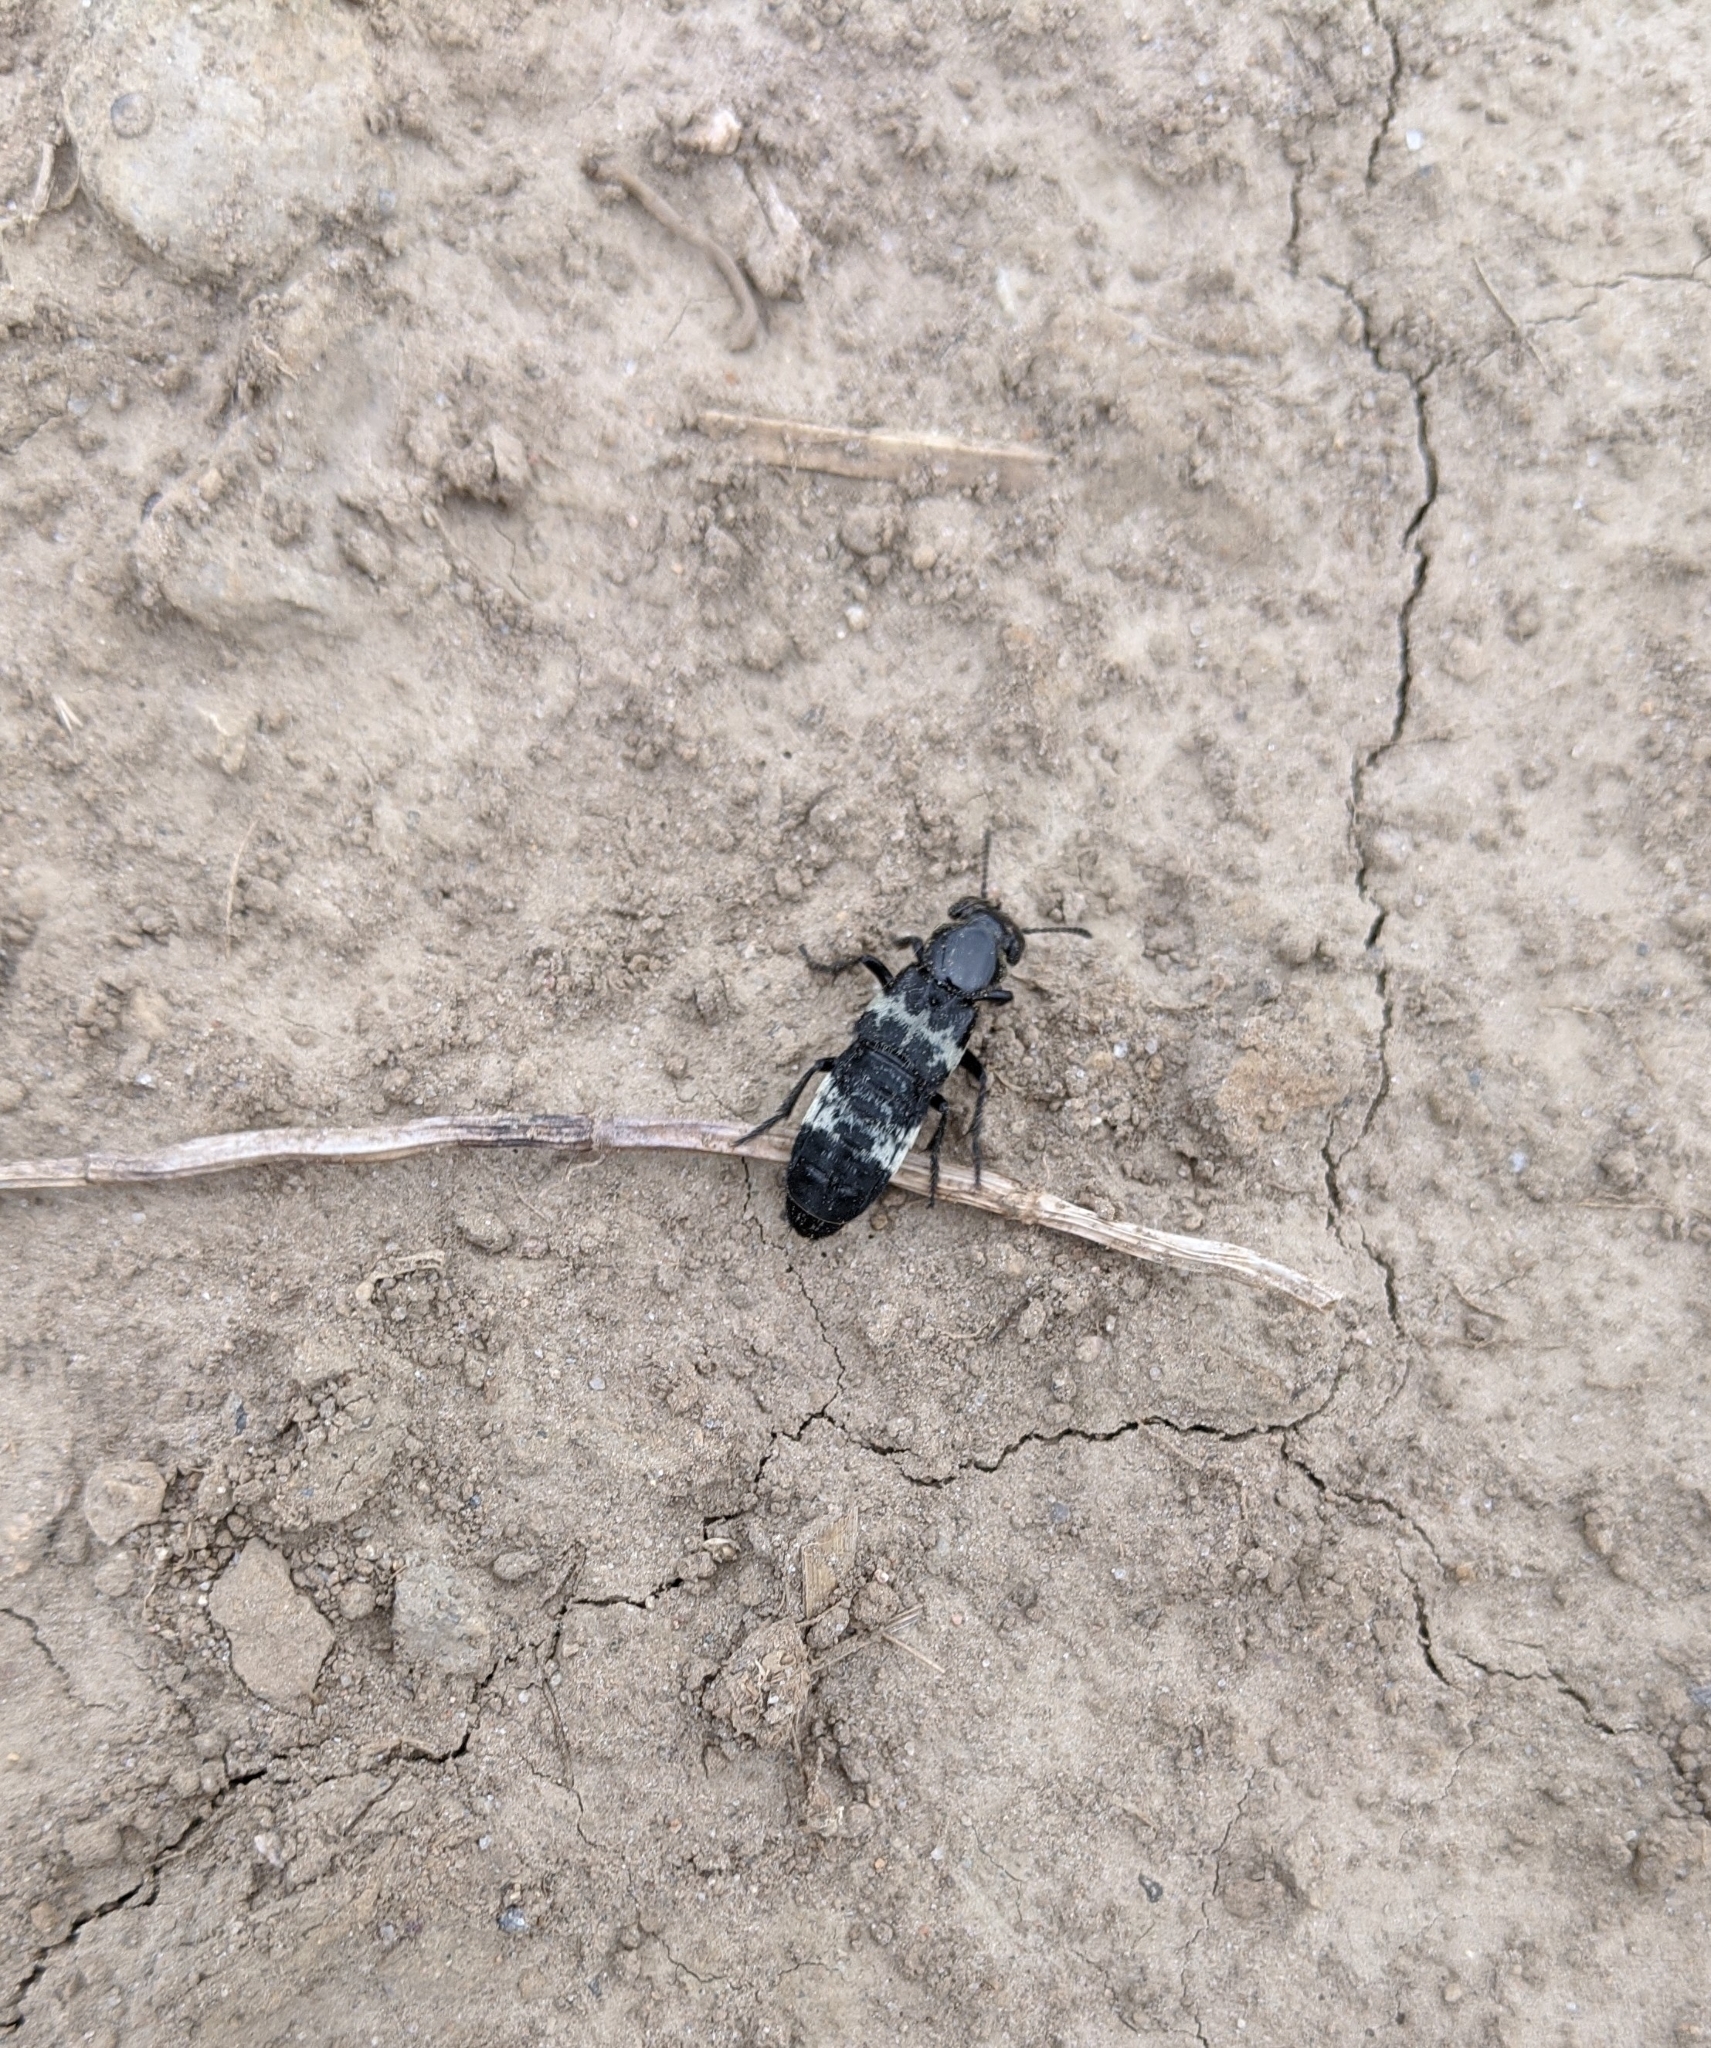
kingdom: Animalia
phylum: Arthropoda
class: Insecta
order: Coleoptera
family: Staphylinidae
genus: Creophilus
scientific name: Creophilus maxillosus
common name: Hairy rove beetle
